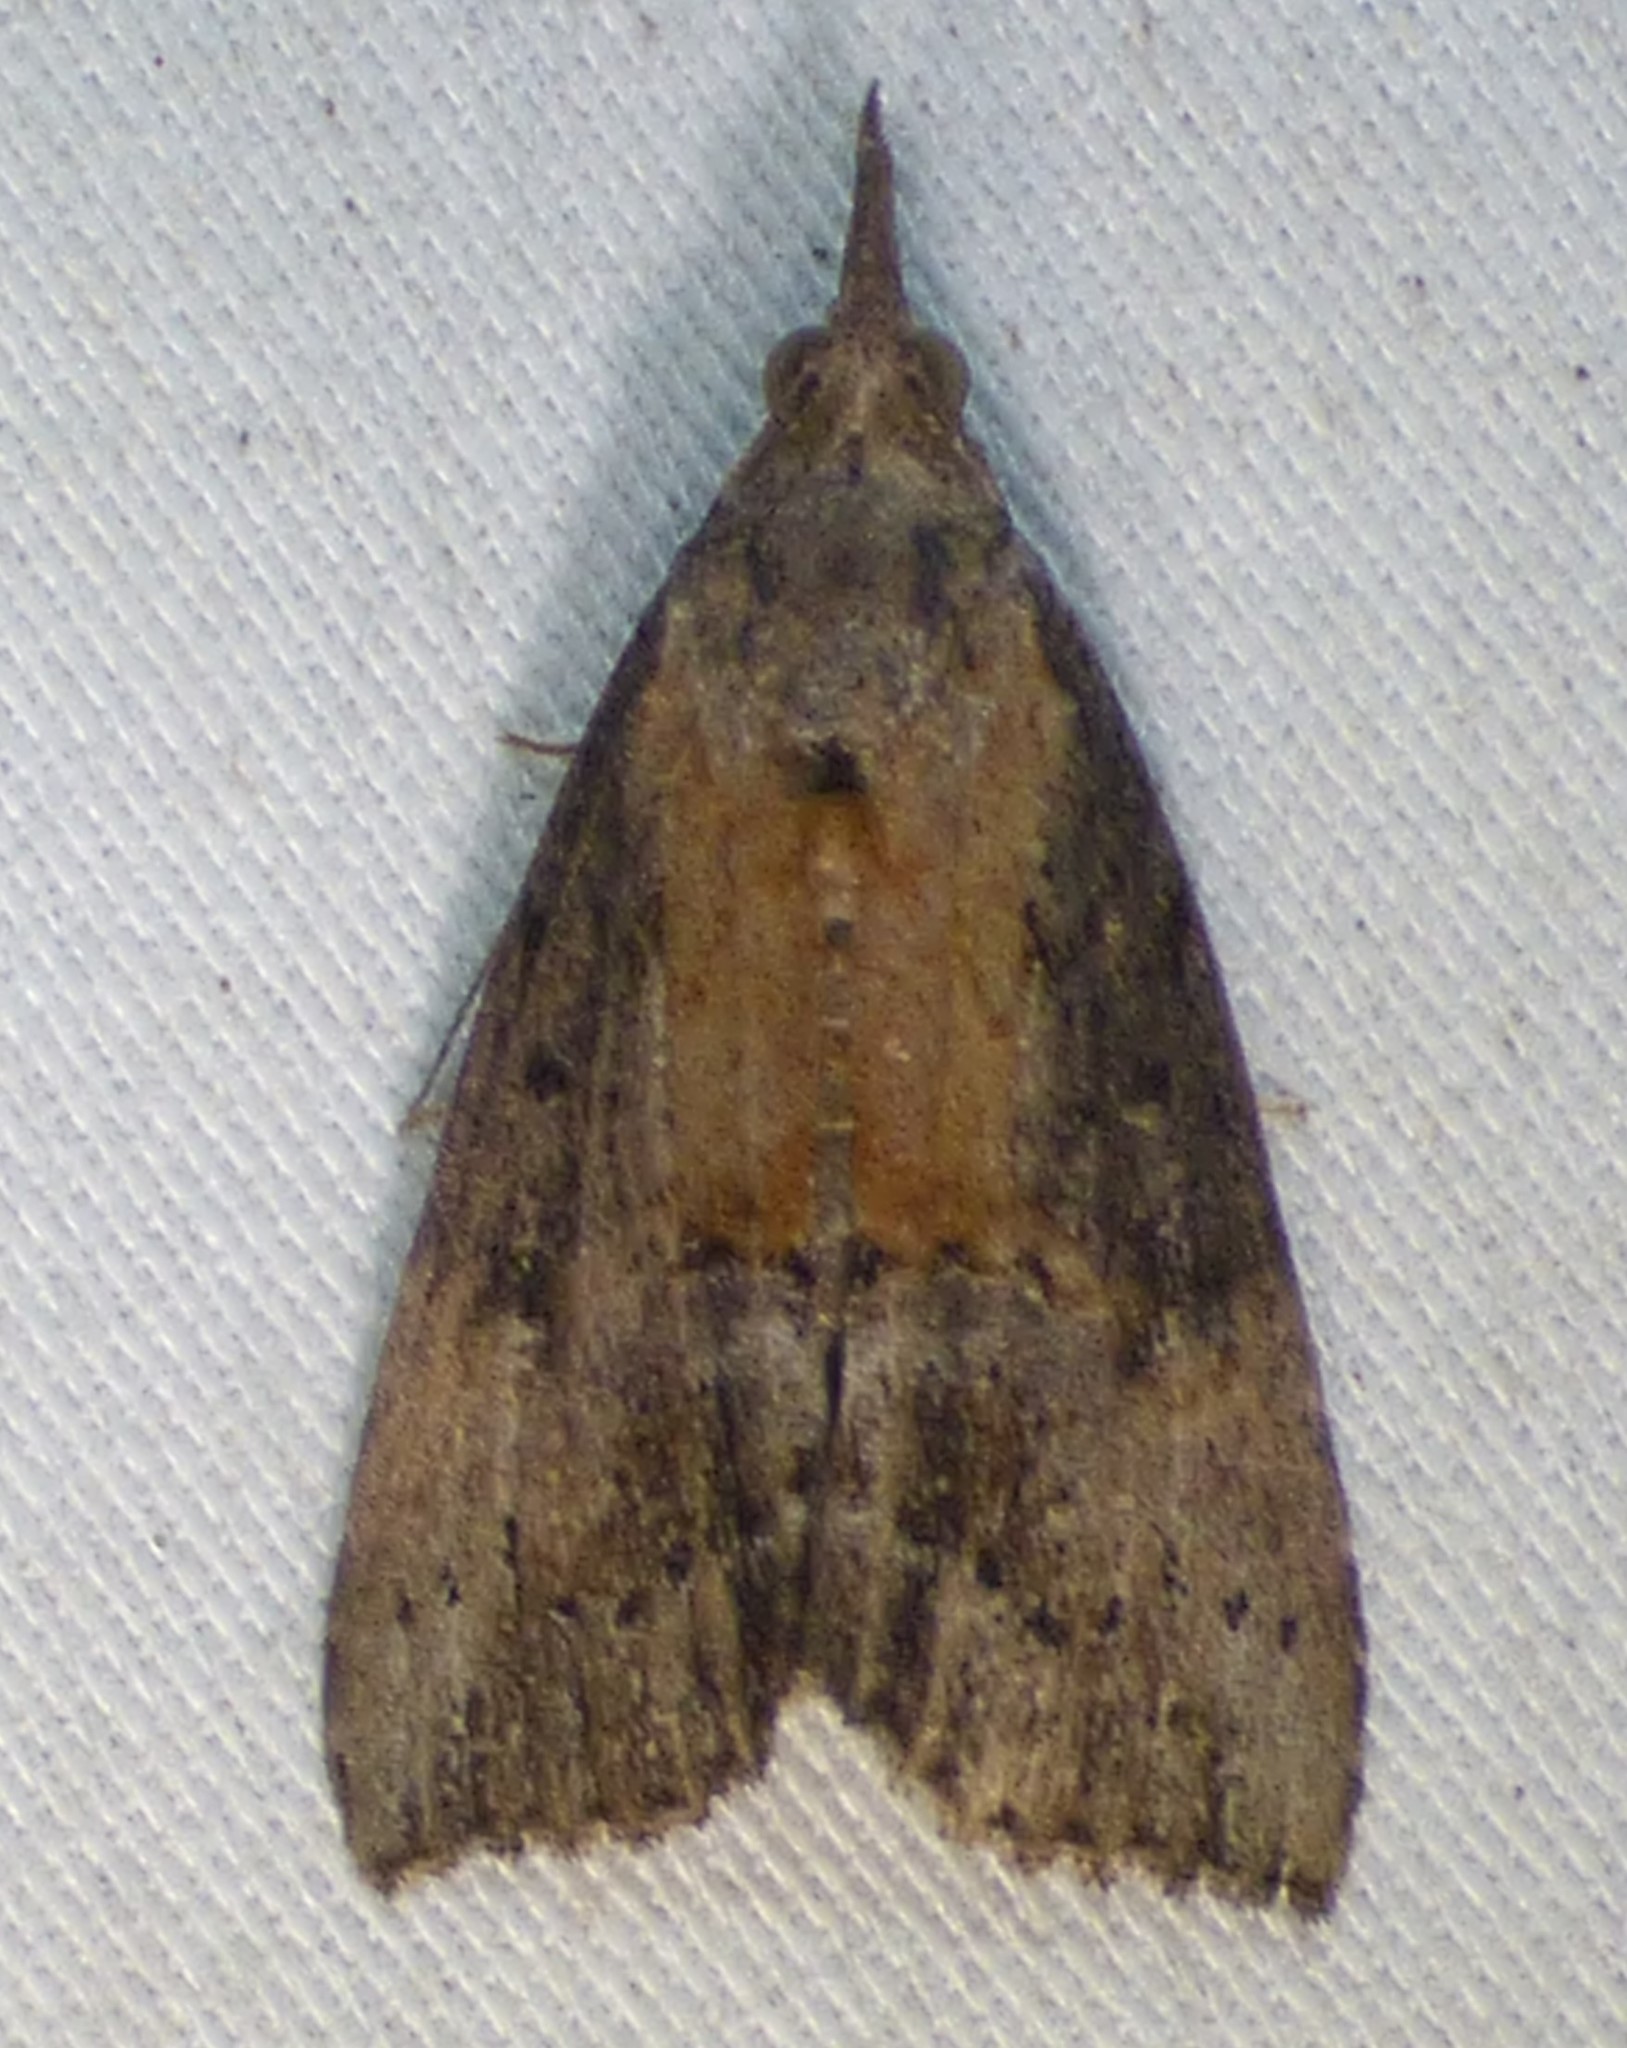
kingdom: Animalia
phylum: Arthropoda
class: Insecta
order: Lepidoptera
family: Erebidae
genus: Hypena
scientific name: Hypena scabra
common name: Green cloverworm
